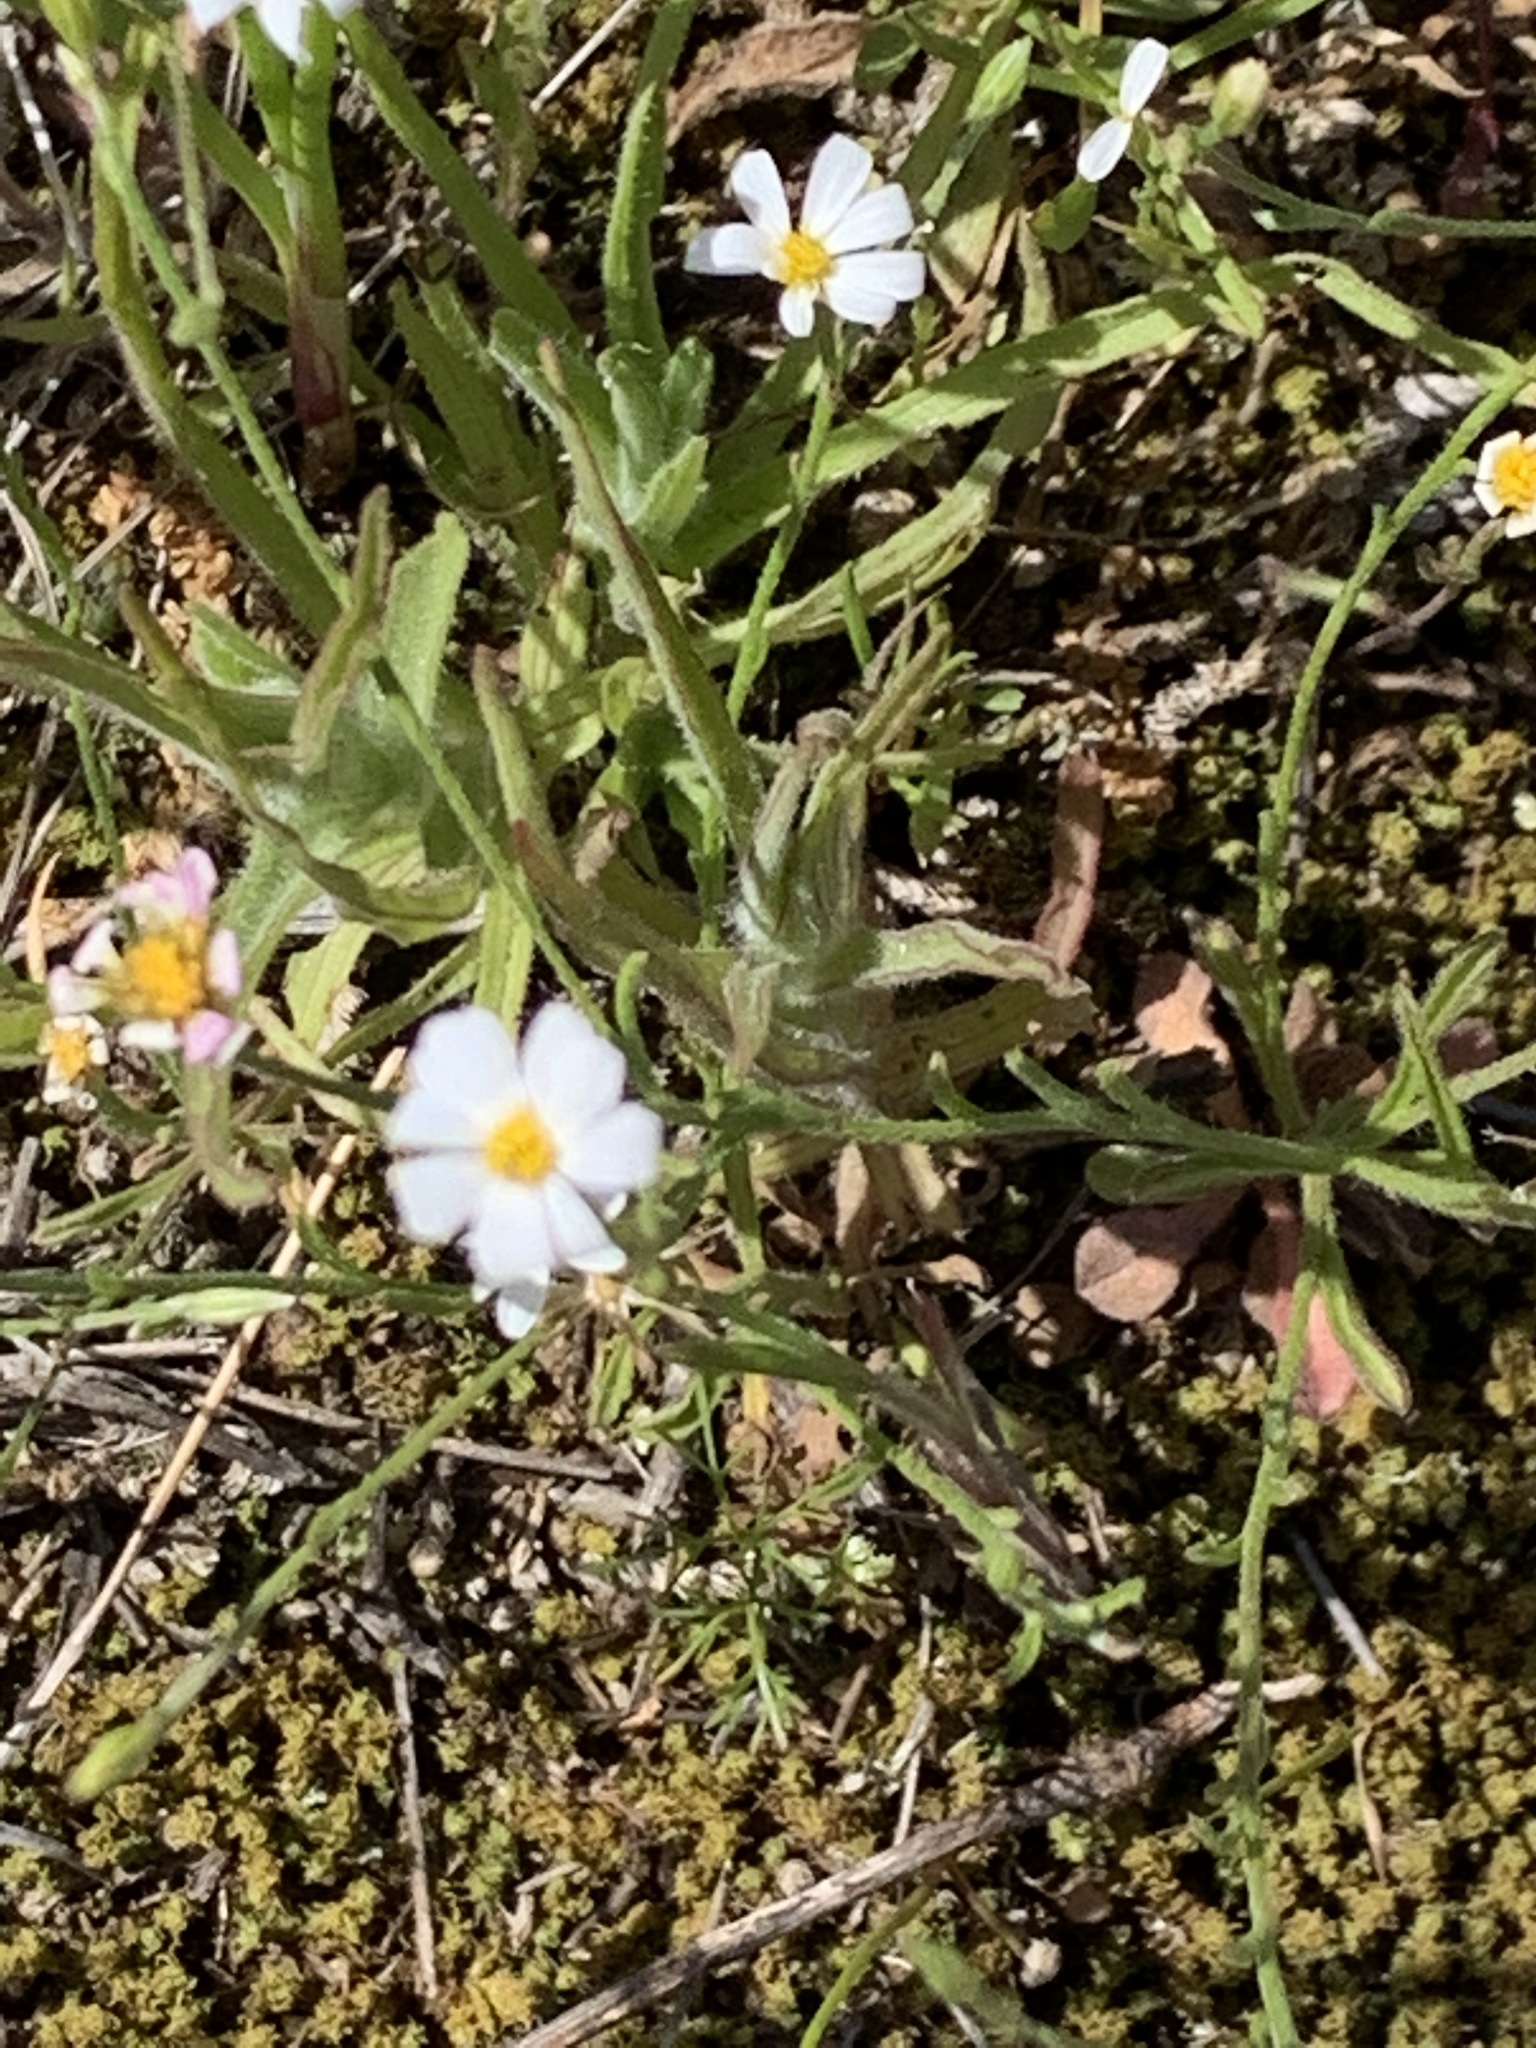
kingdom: Plantae
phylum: Tracheophyta
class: Magnoliopsida
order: Asterales
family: Asteraceae
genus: Chaetopappa
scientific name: Chaetopappa asteroides
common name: Tiny lazy daisy
